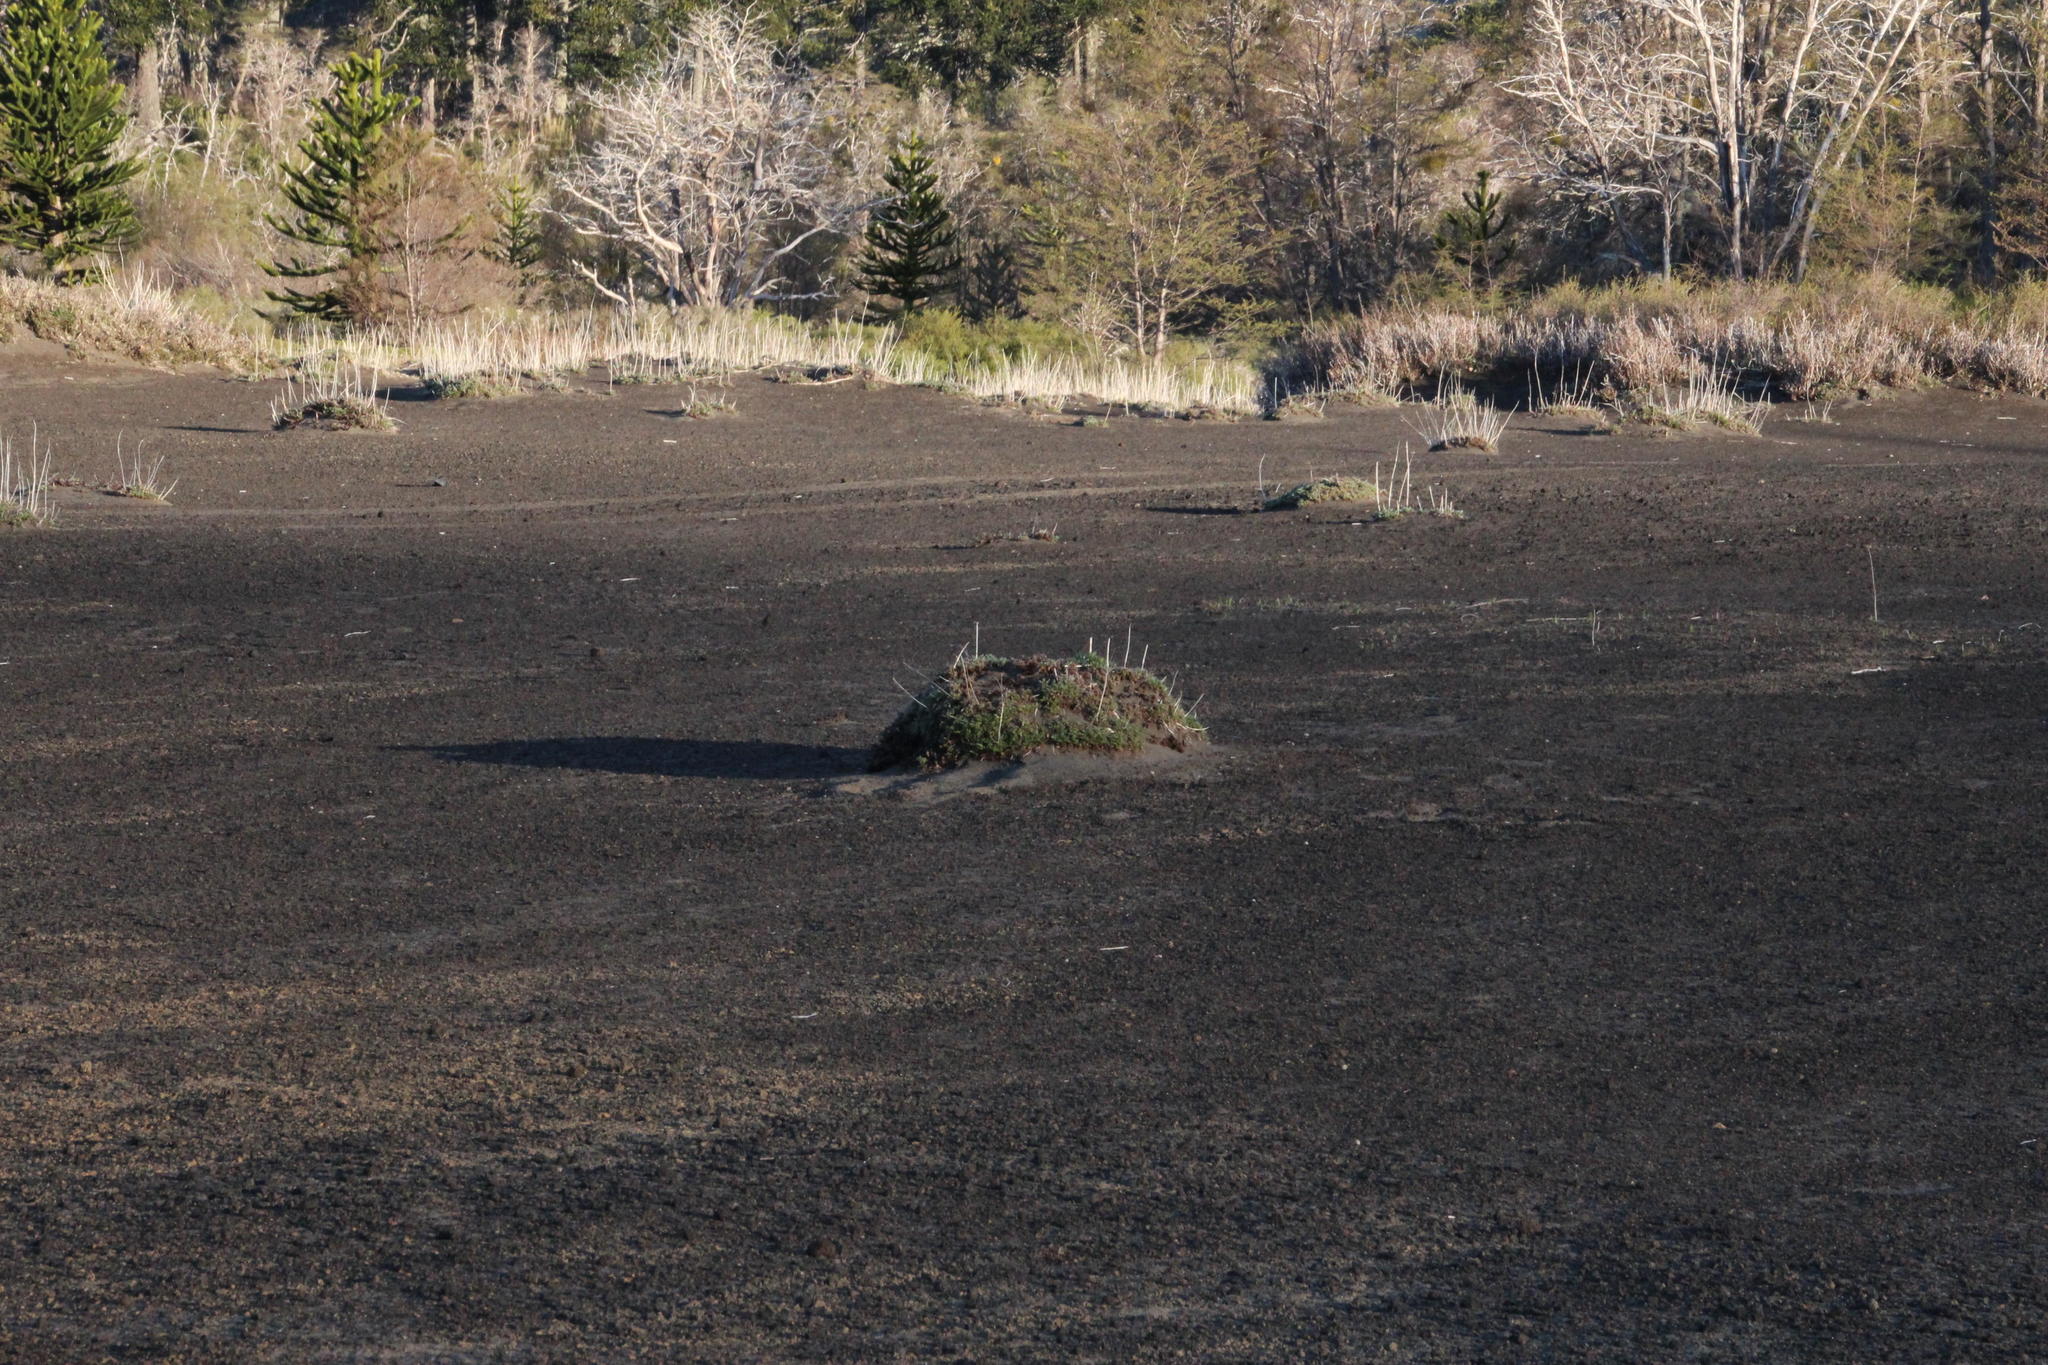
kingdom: Plantae
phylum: Tracheophyta
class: Magnoliopsida
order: Rosales
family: Rosaceae
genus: Acaena
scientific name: Acaena leptacantha
